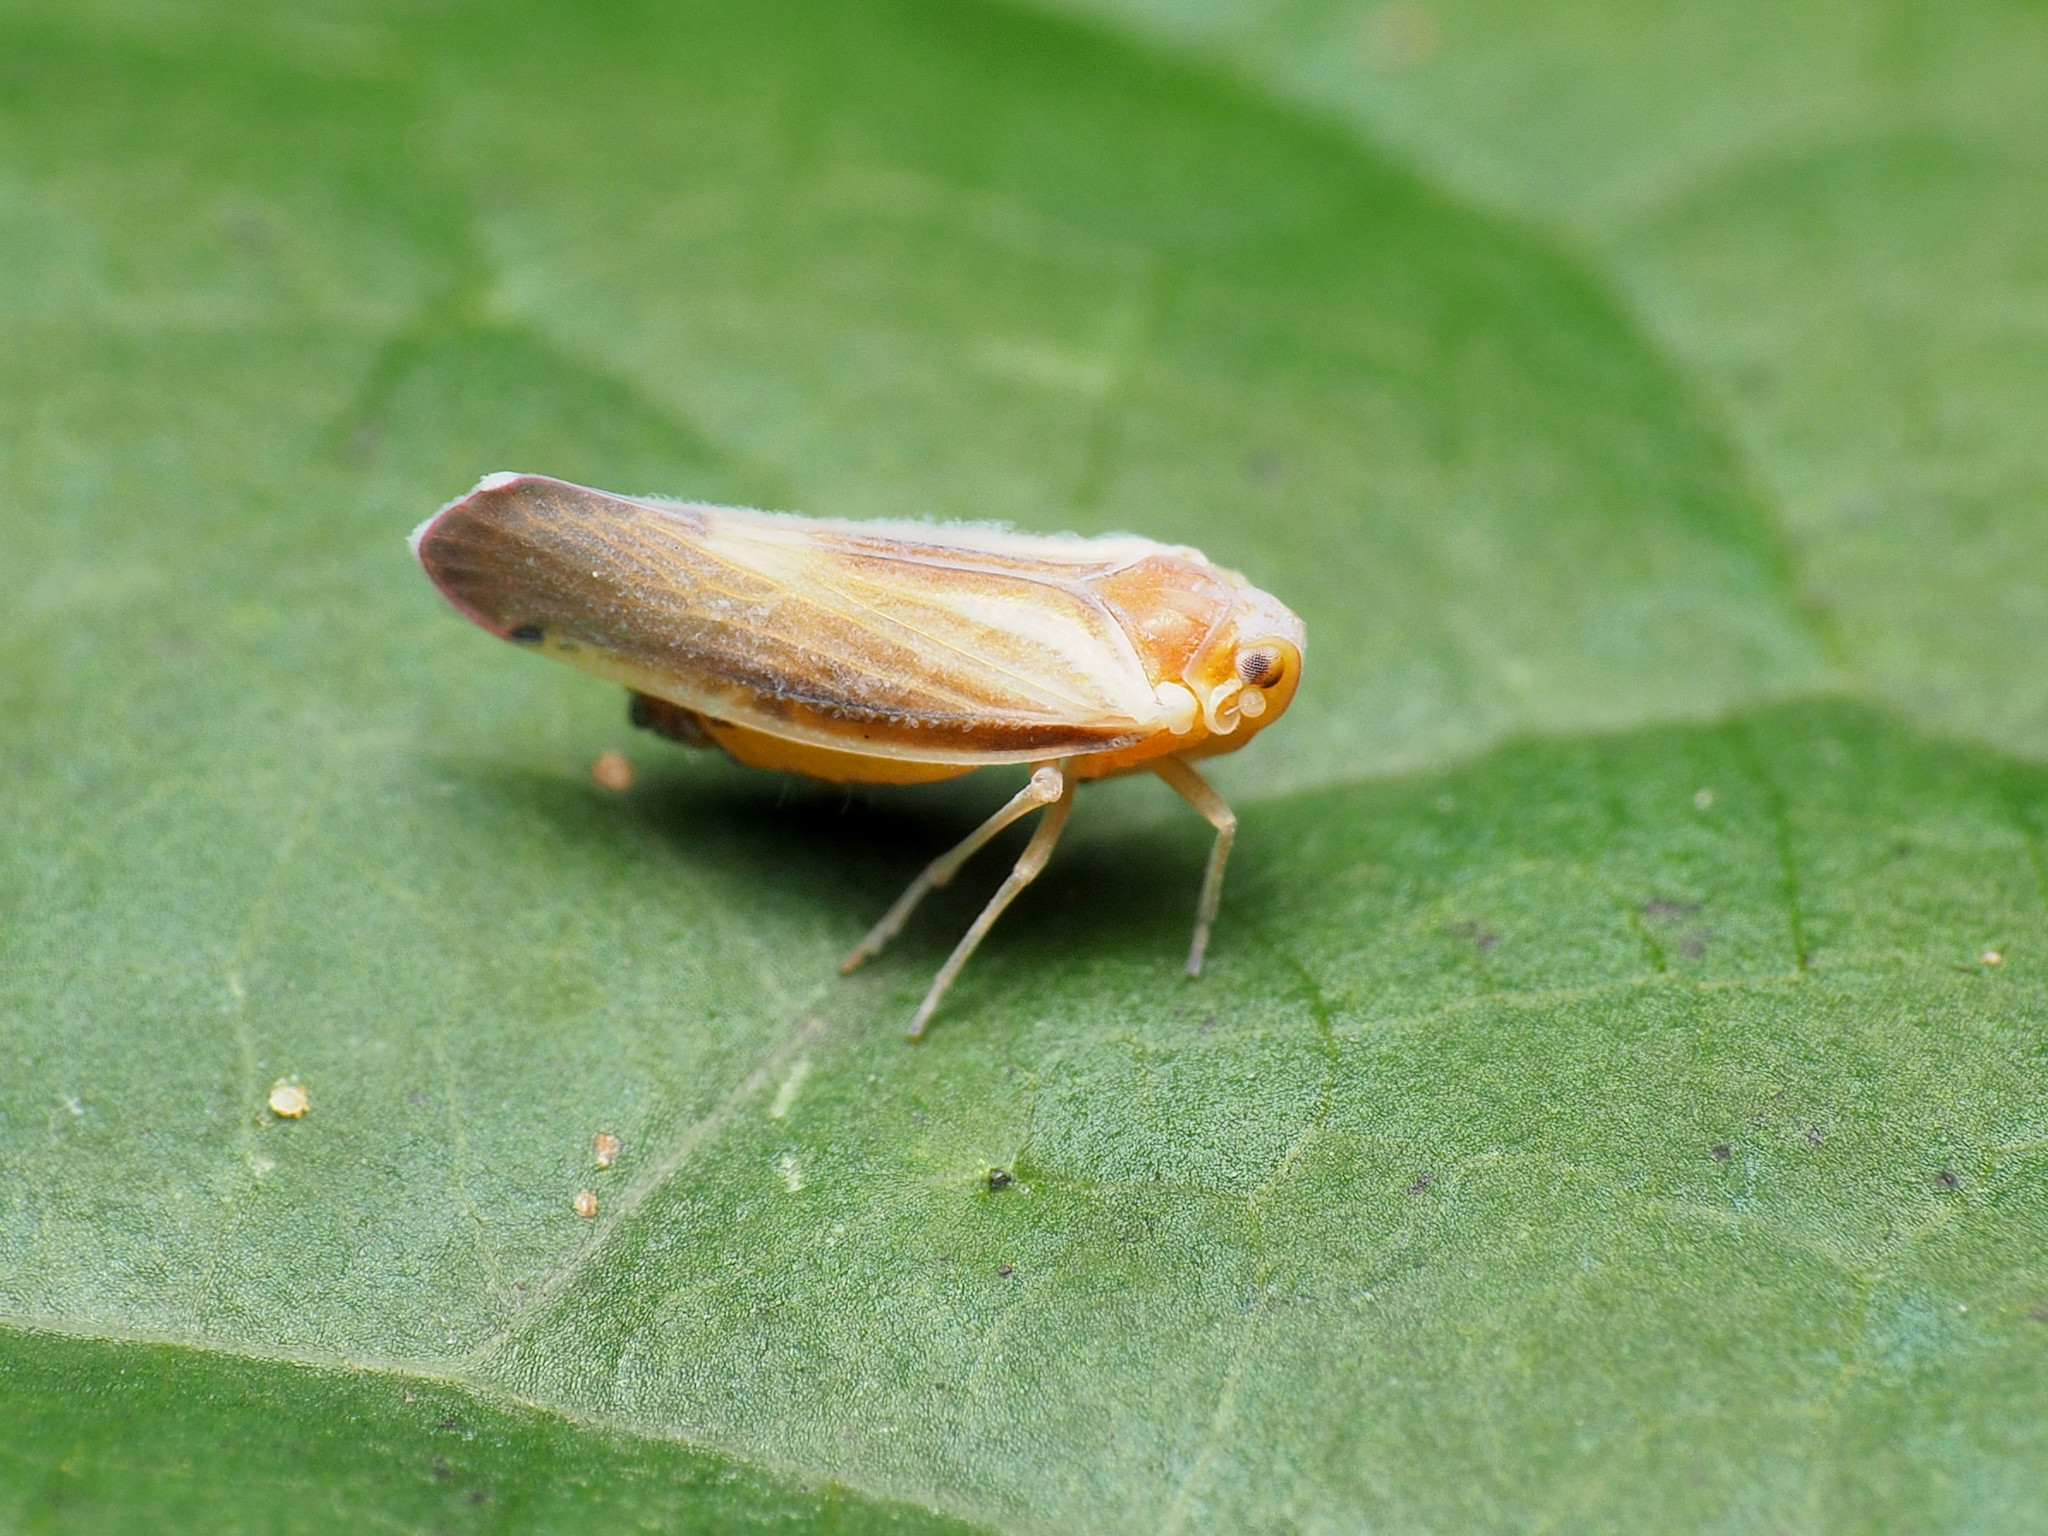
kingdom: Animalia
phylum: Arthropoda
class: Insecta
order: Hemiptera
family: Derbidae
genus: Omolicna
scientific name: Omolicna uhleri
